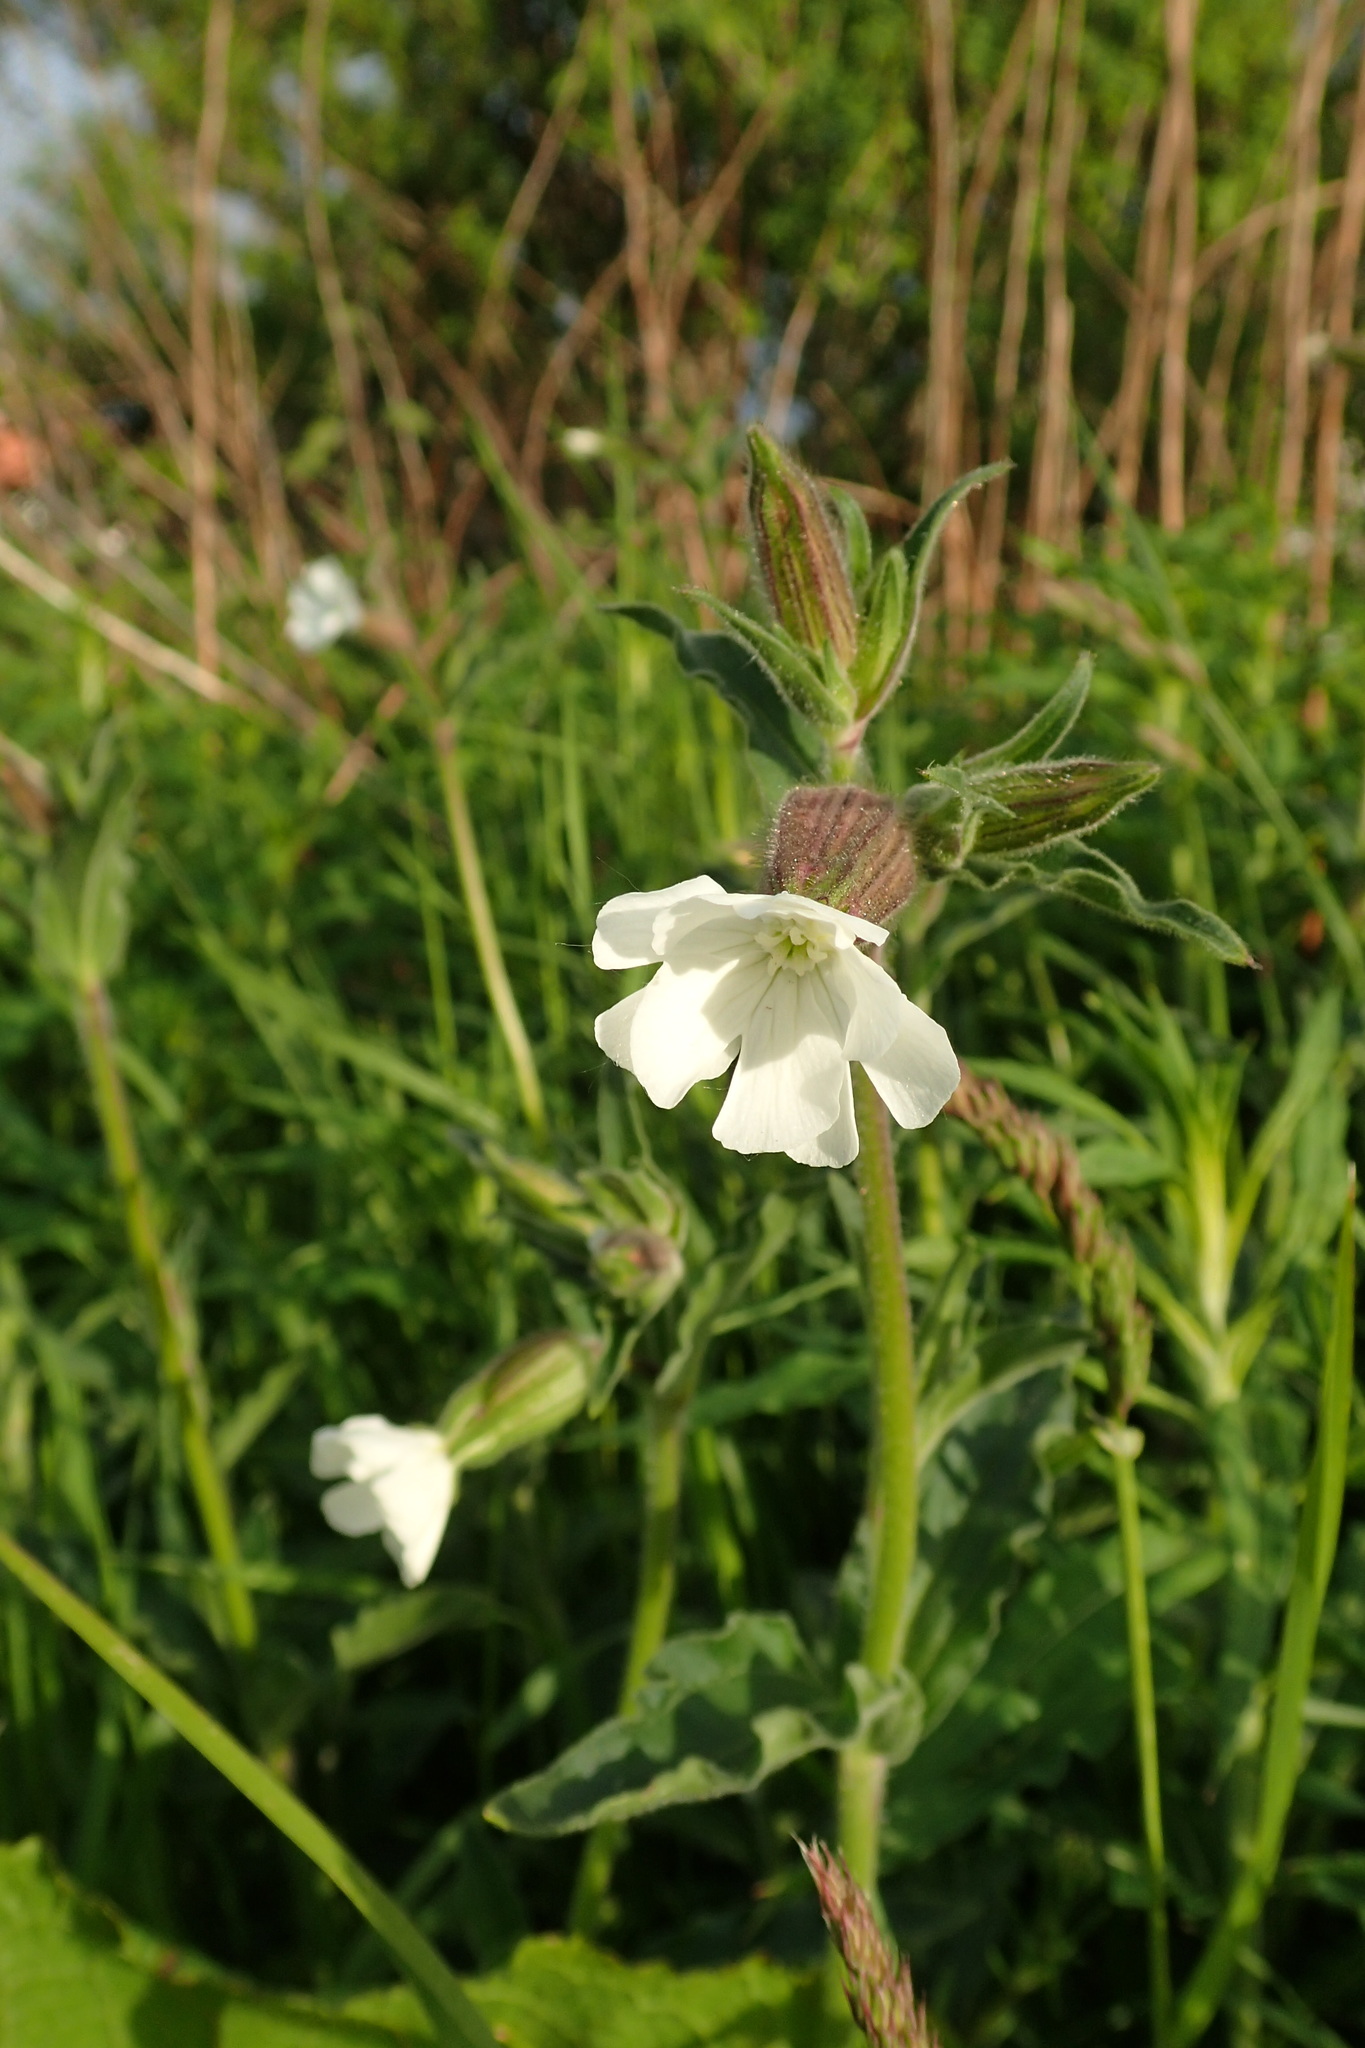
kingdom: Plantae
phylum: Tracheophyta
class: Magnoliopsida
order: Caryophyllales
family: Caryophyllaceae
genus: Silene
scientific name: Silene latifolia
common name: White campion
